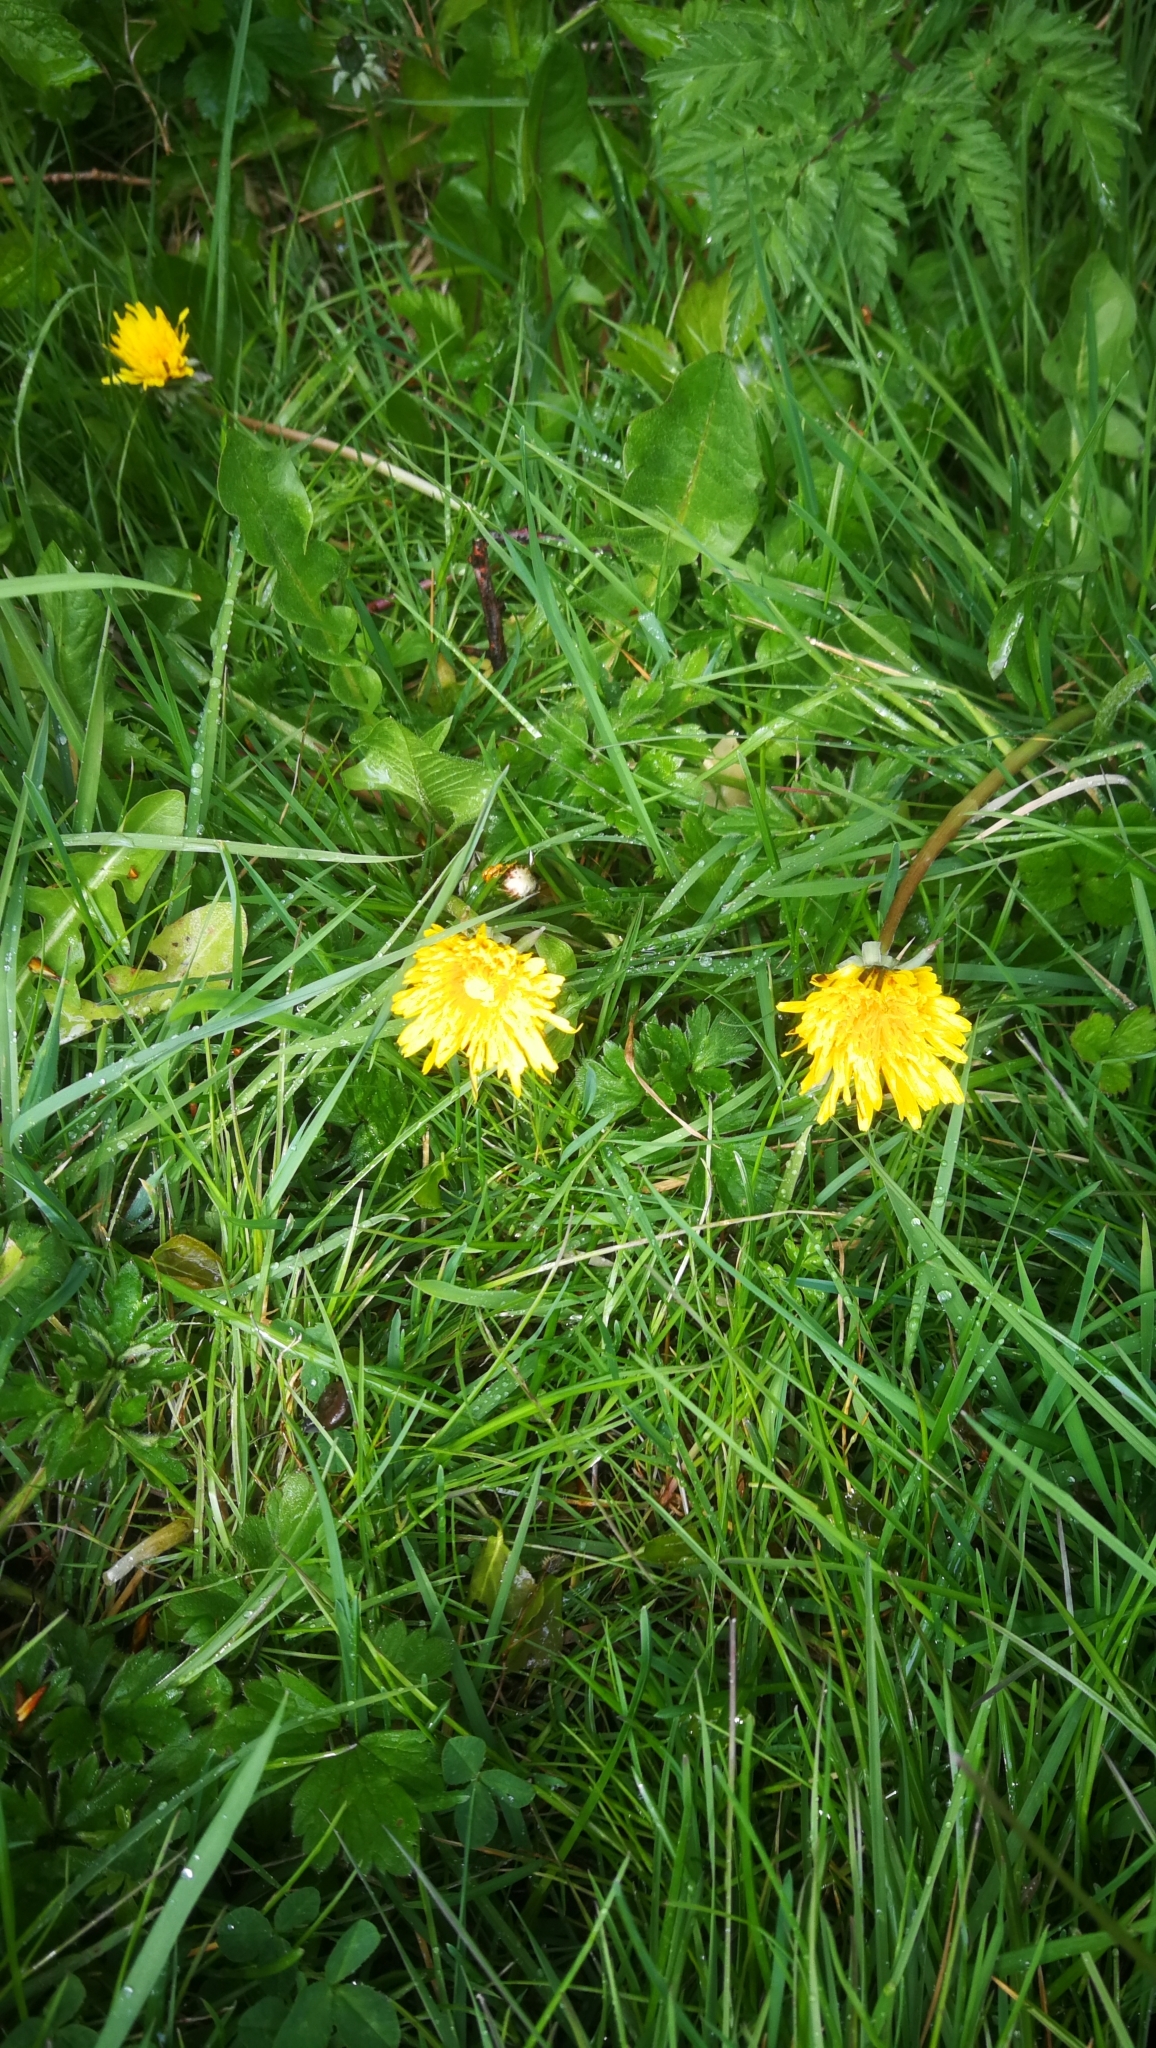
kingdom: Plantae
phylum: Tracheophyta
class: Magnoliopsida
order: Asterales
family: Asteraceae
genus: Taraxacum
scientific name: Taraxacum officinale
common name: Common dandelion
